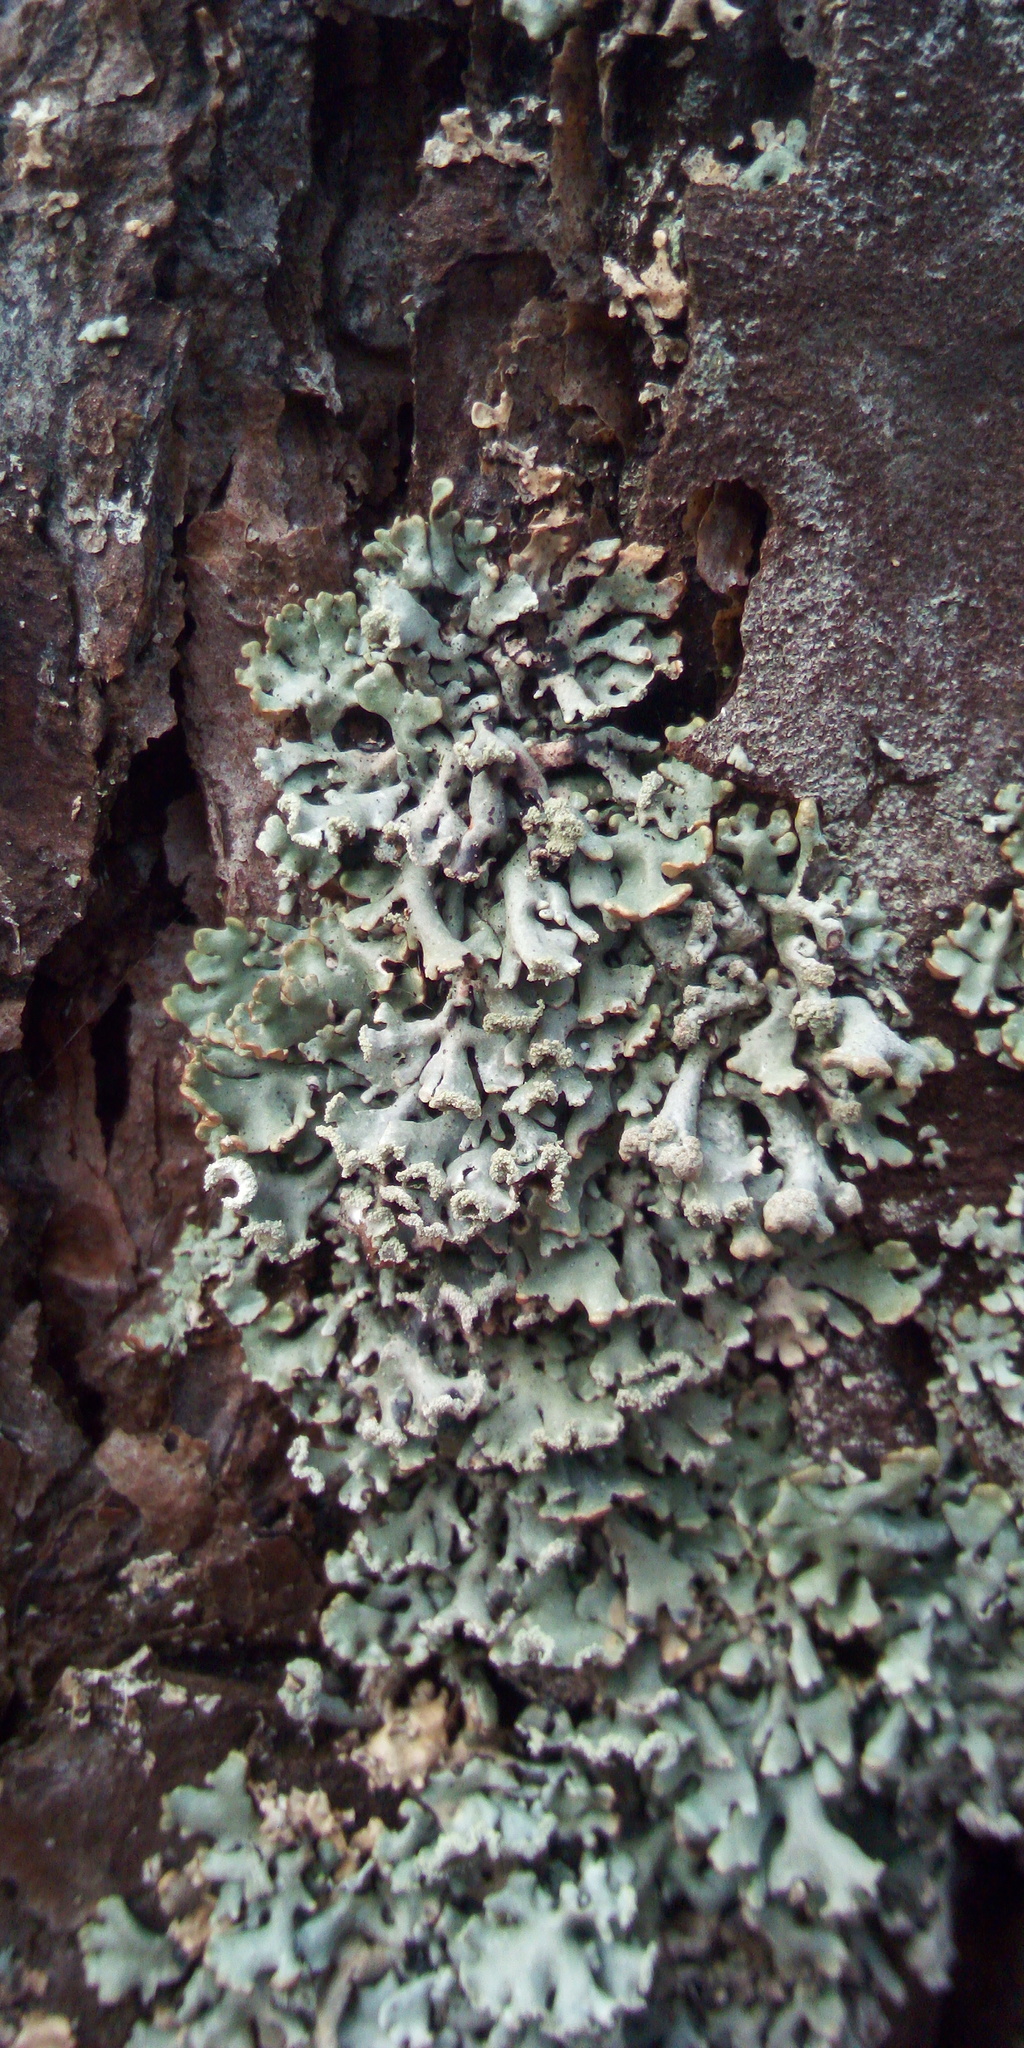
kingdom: Fungi
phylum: Ascomycota
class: Lecanoromycetes
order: Lecanorales
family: Parmeliaceae
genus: Hypogymnia
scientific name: Hypogymnia physodes
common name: Dark crottle
